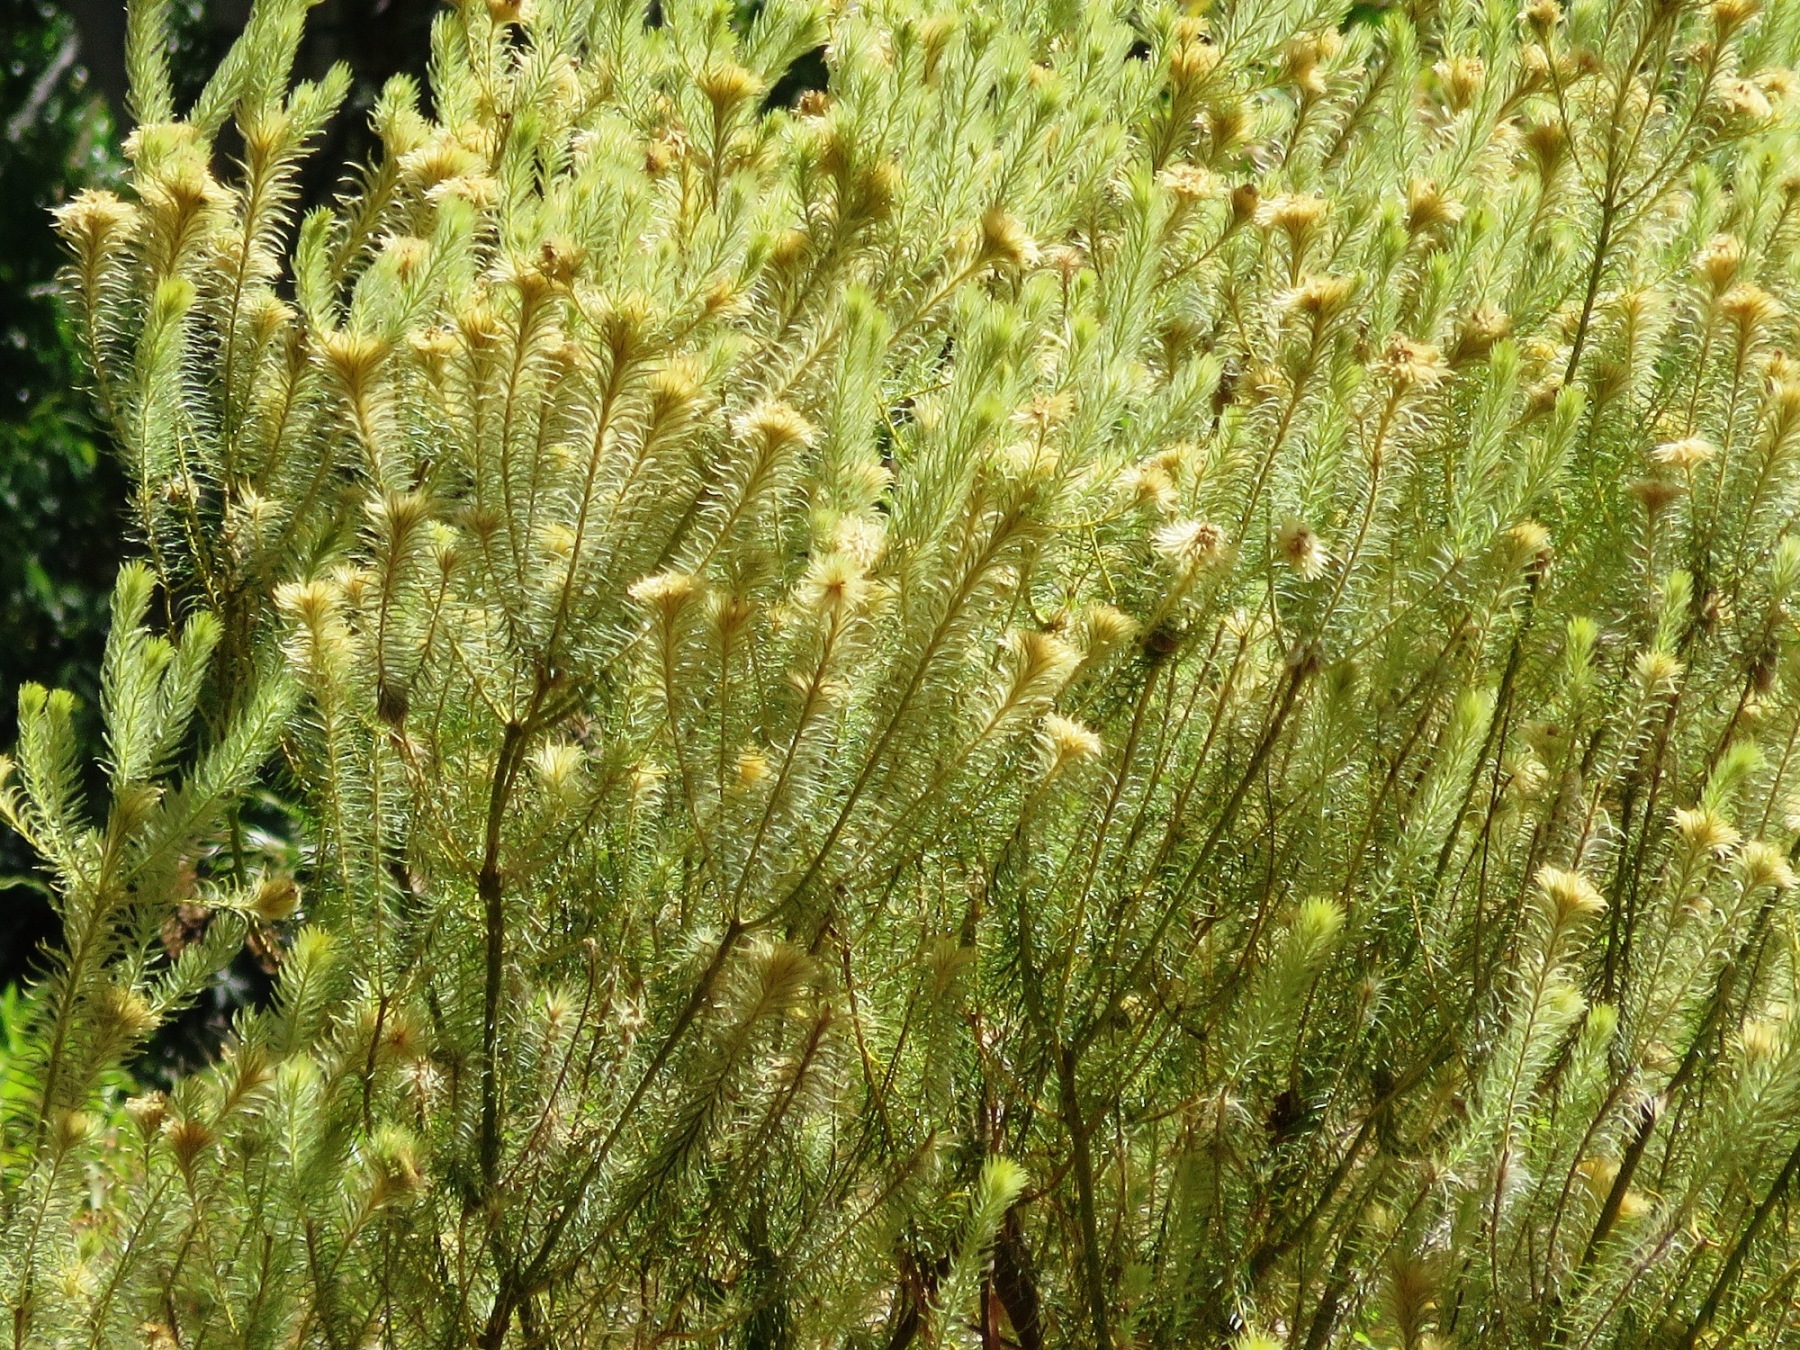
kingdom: Plantae
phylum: Tracheophyta
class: Magnoliopsida
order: Rosales
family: Rhamnaceae
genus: Phylica
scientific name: Phylica pubescens
